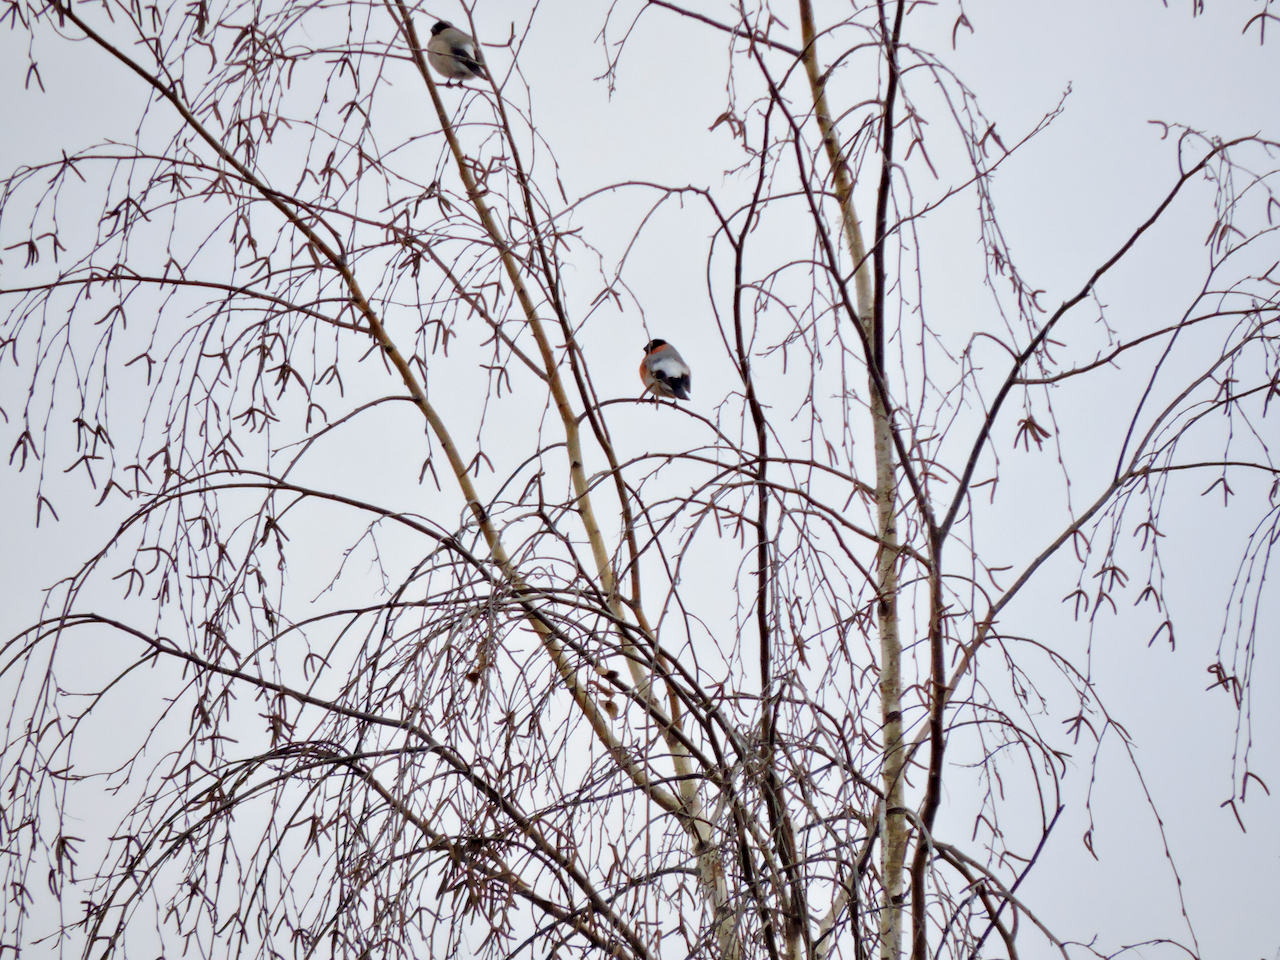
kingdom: Animalia
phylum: Chordata
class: Aves
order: Passeriformes
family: Fringillidae
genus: Pyrrhula
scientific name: Pyrrhula pyrrhula
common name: Eurasian bullfinch
